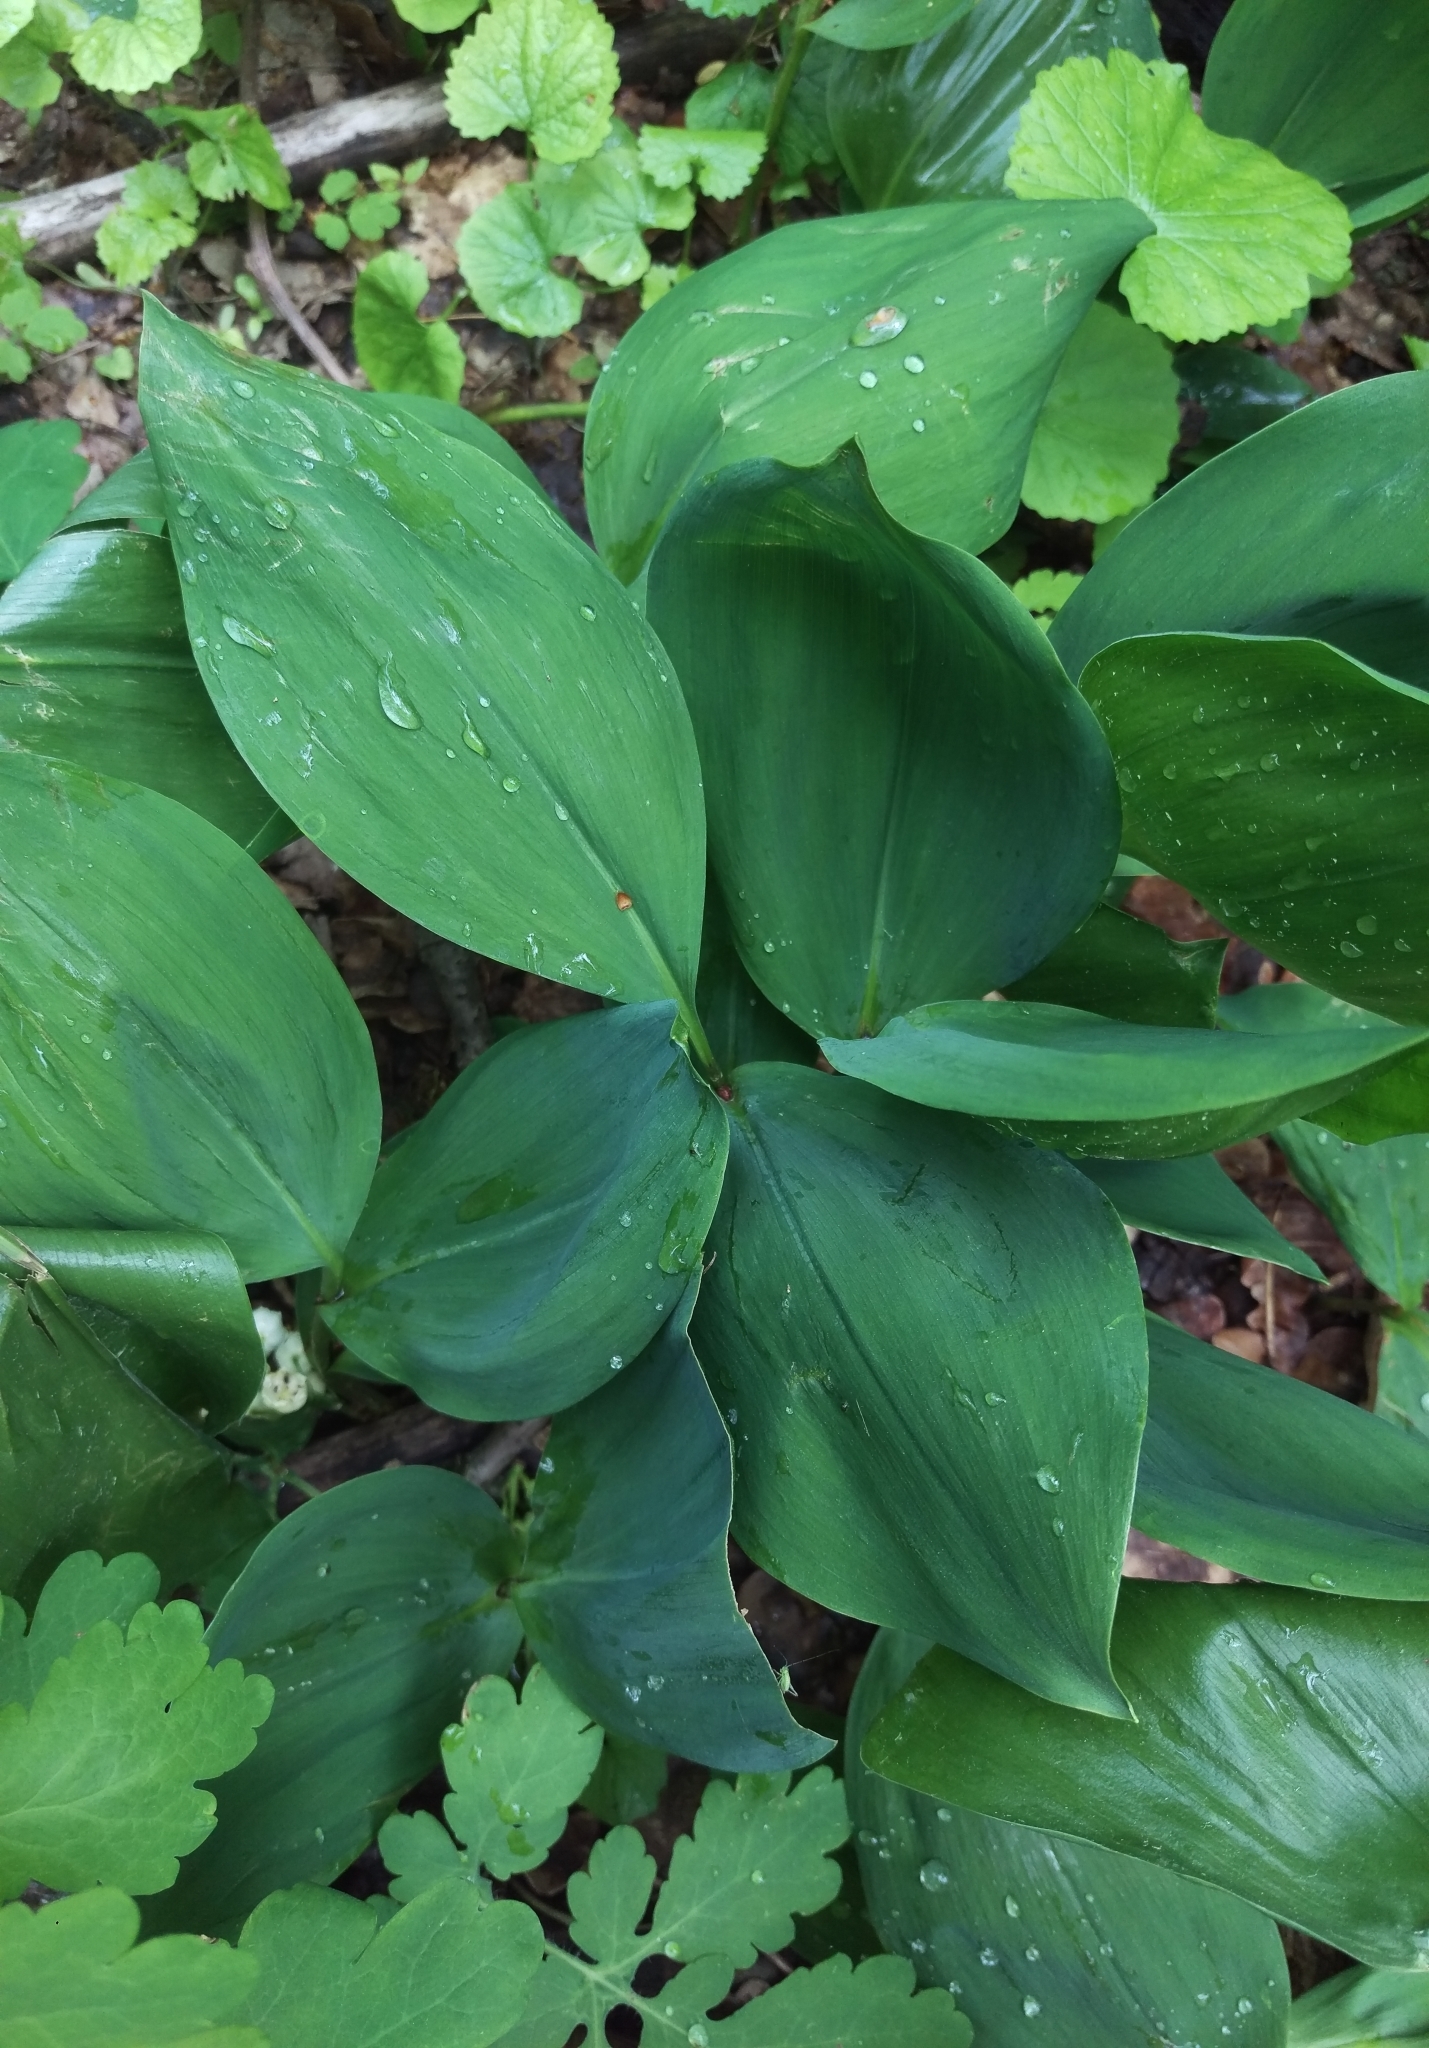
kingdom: Plantae
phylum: Tracheophyta
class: Liliopsida
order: Asparagales
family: Asparagaceae
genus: Convallaria
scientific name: Convallaria majalis
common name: Lily-of-the-valley
